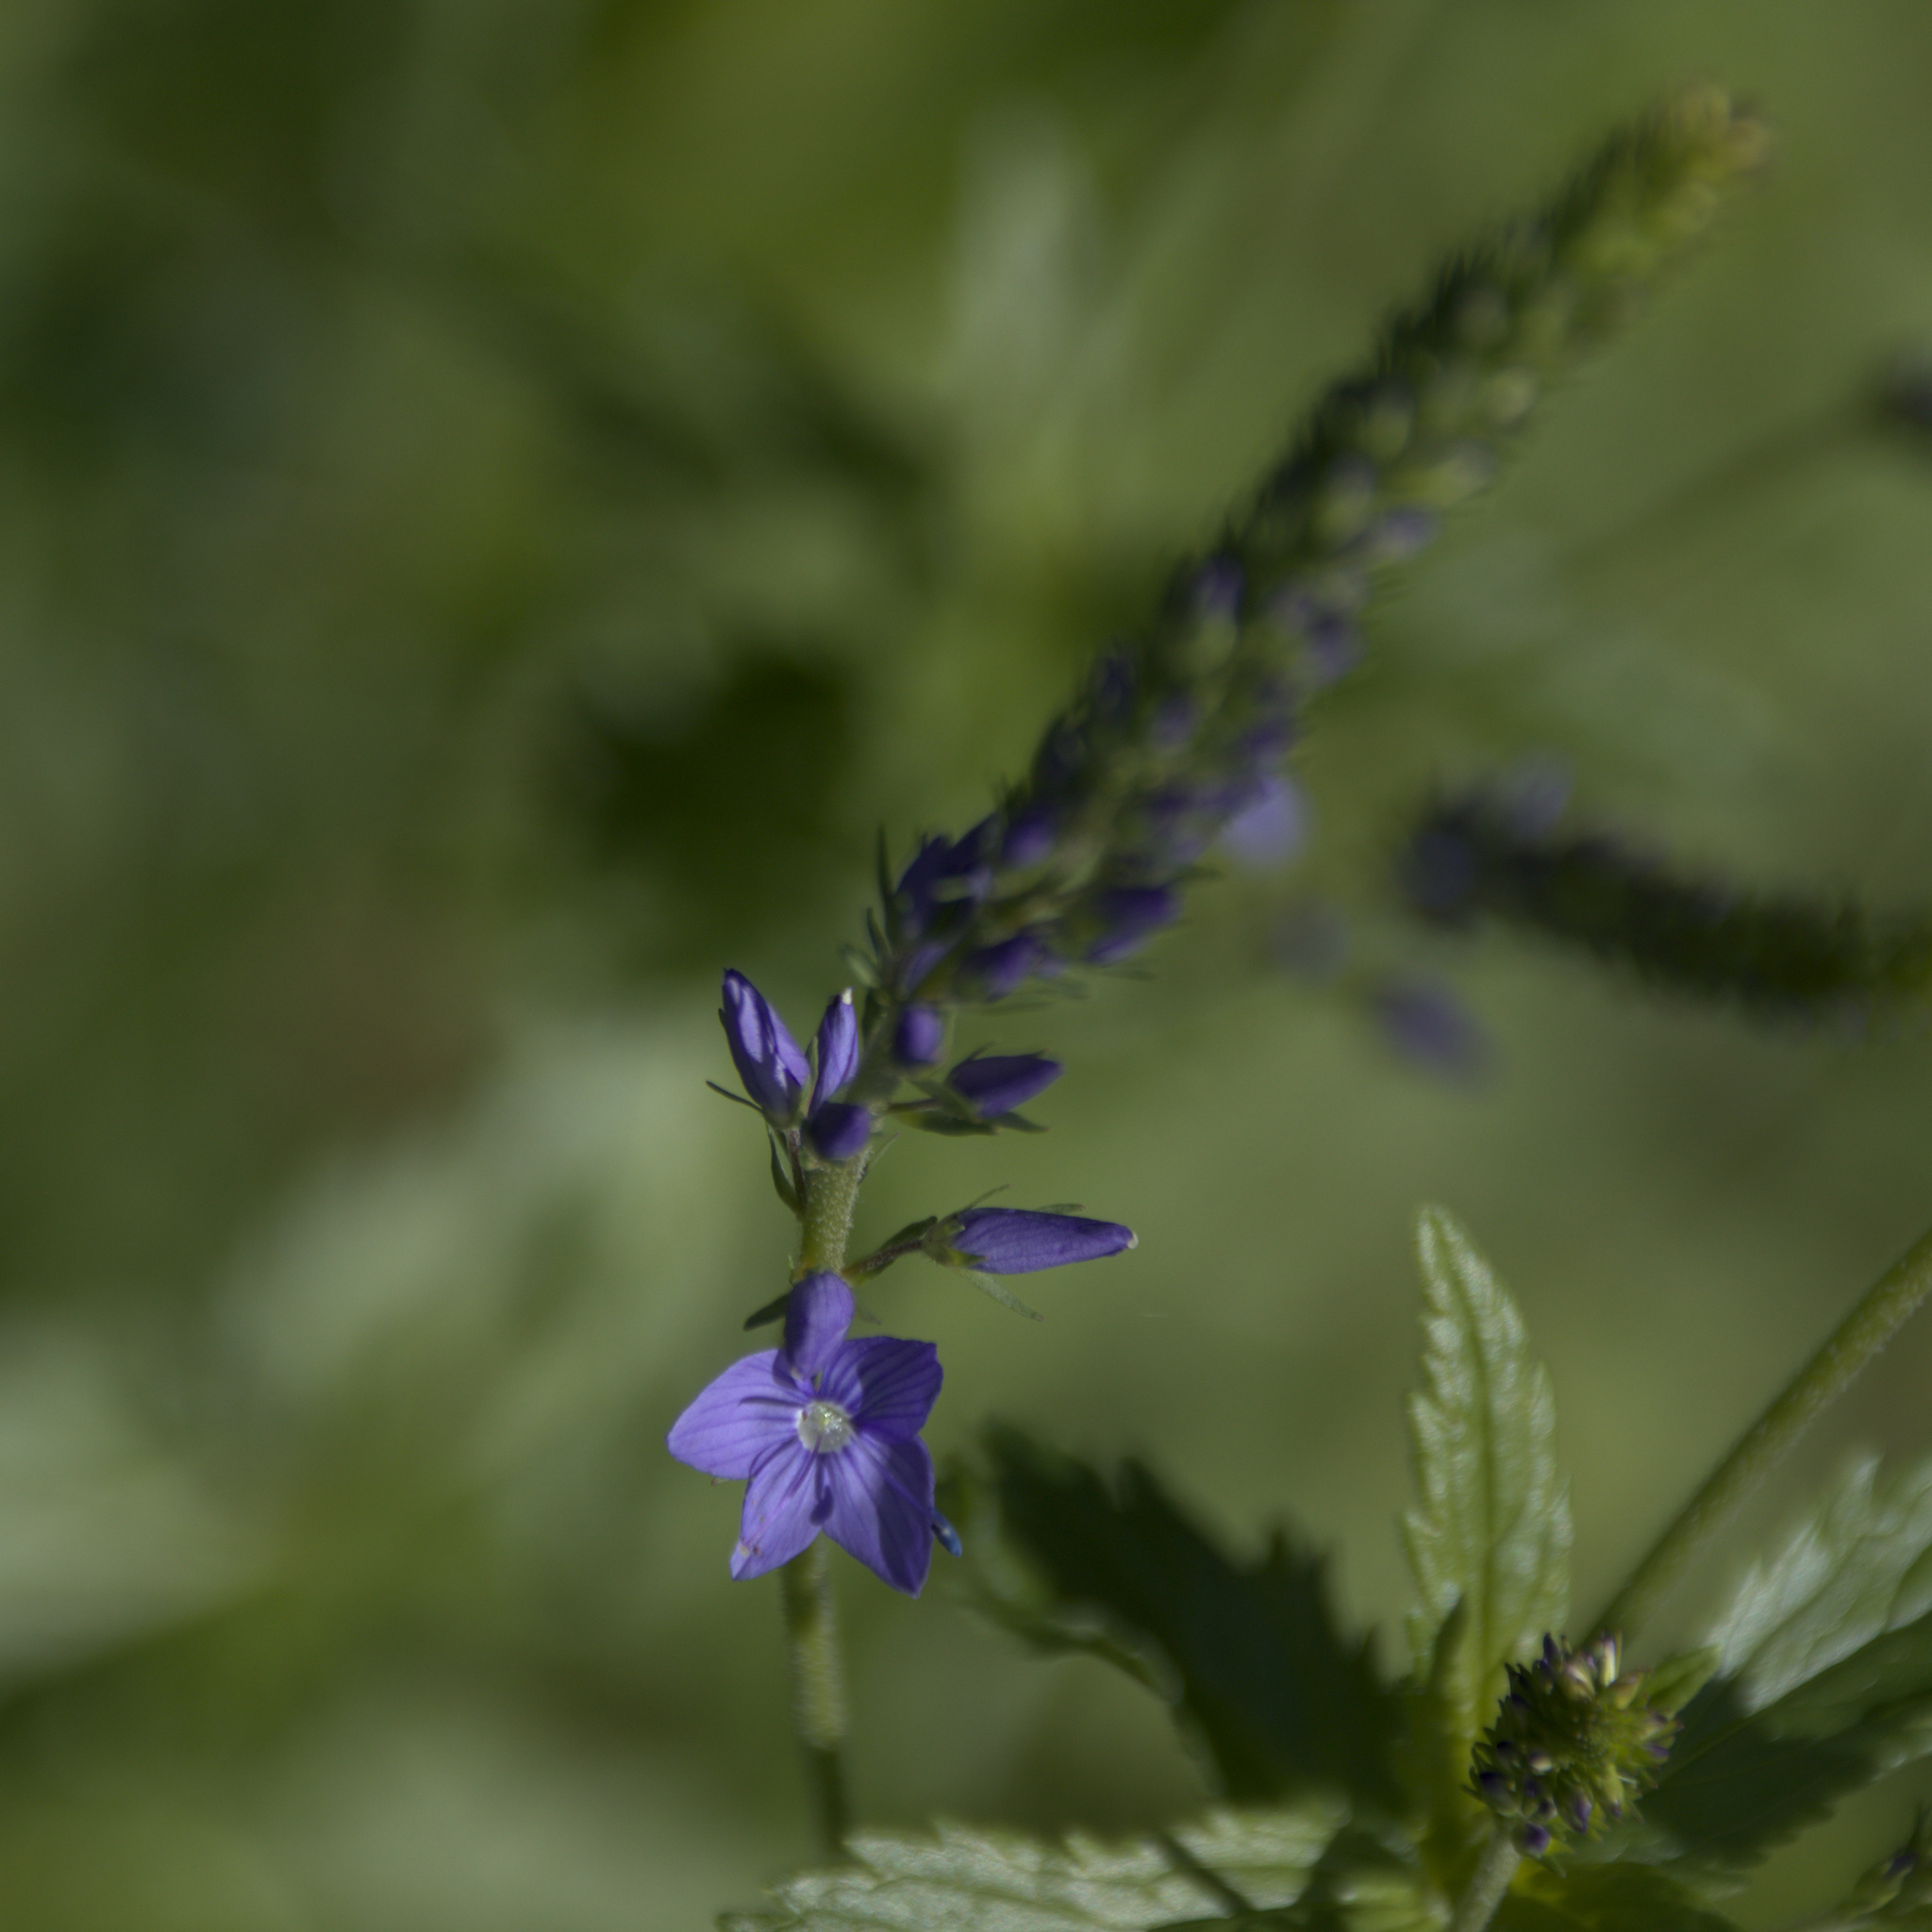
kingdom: Plantae
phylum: Tracheophyta
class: Magnoliopsida
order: Lamiales
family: Plantaginaceae
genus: Veronica
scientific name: Veronica teucrium
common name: Large speedwell
